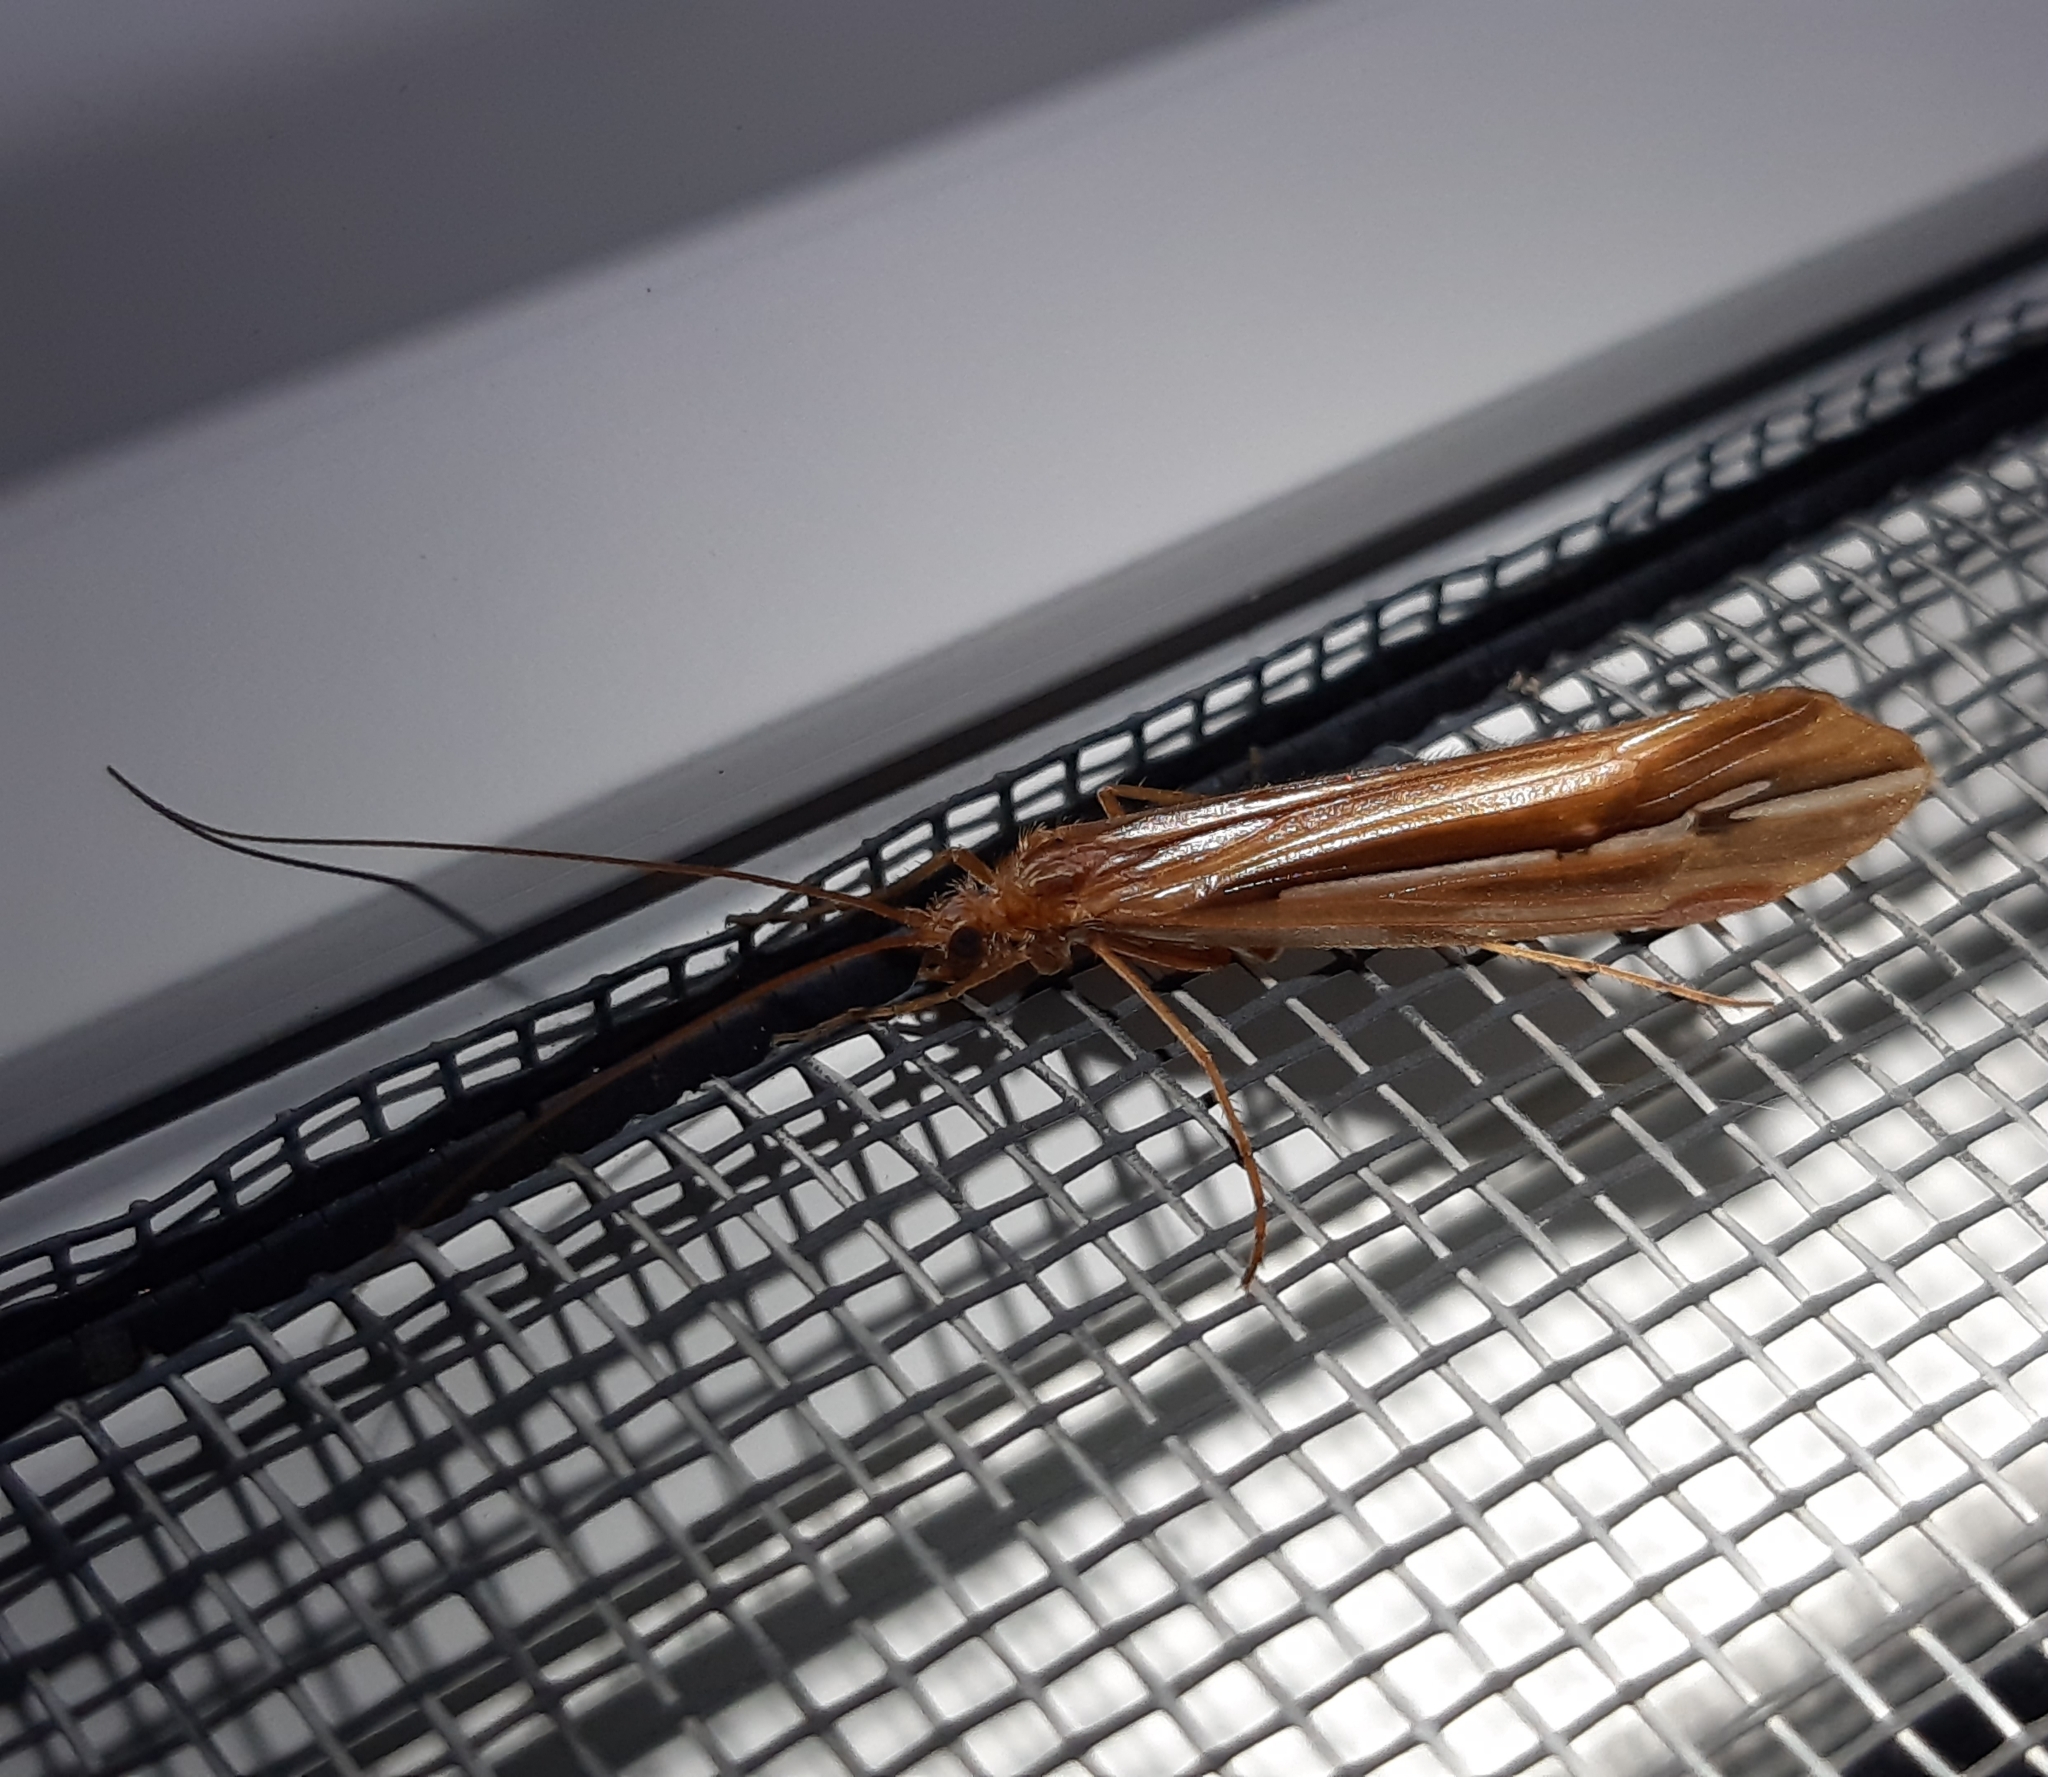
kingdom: Animalia
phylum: Arthropoda
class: Insecta
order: Trichoptera
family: Limnephilidae
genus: Psychoglypha
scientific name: Psychoglypha subborealis
